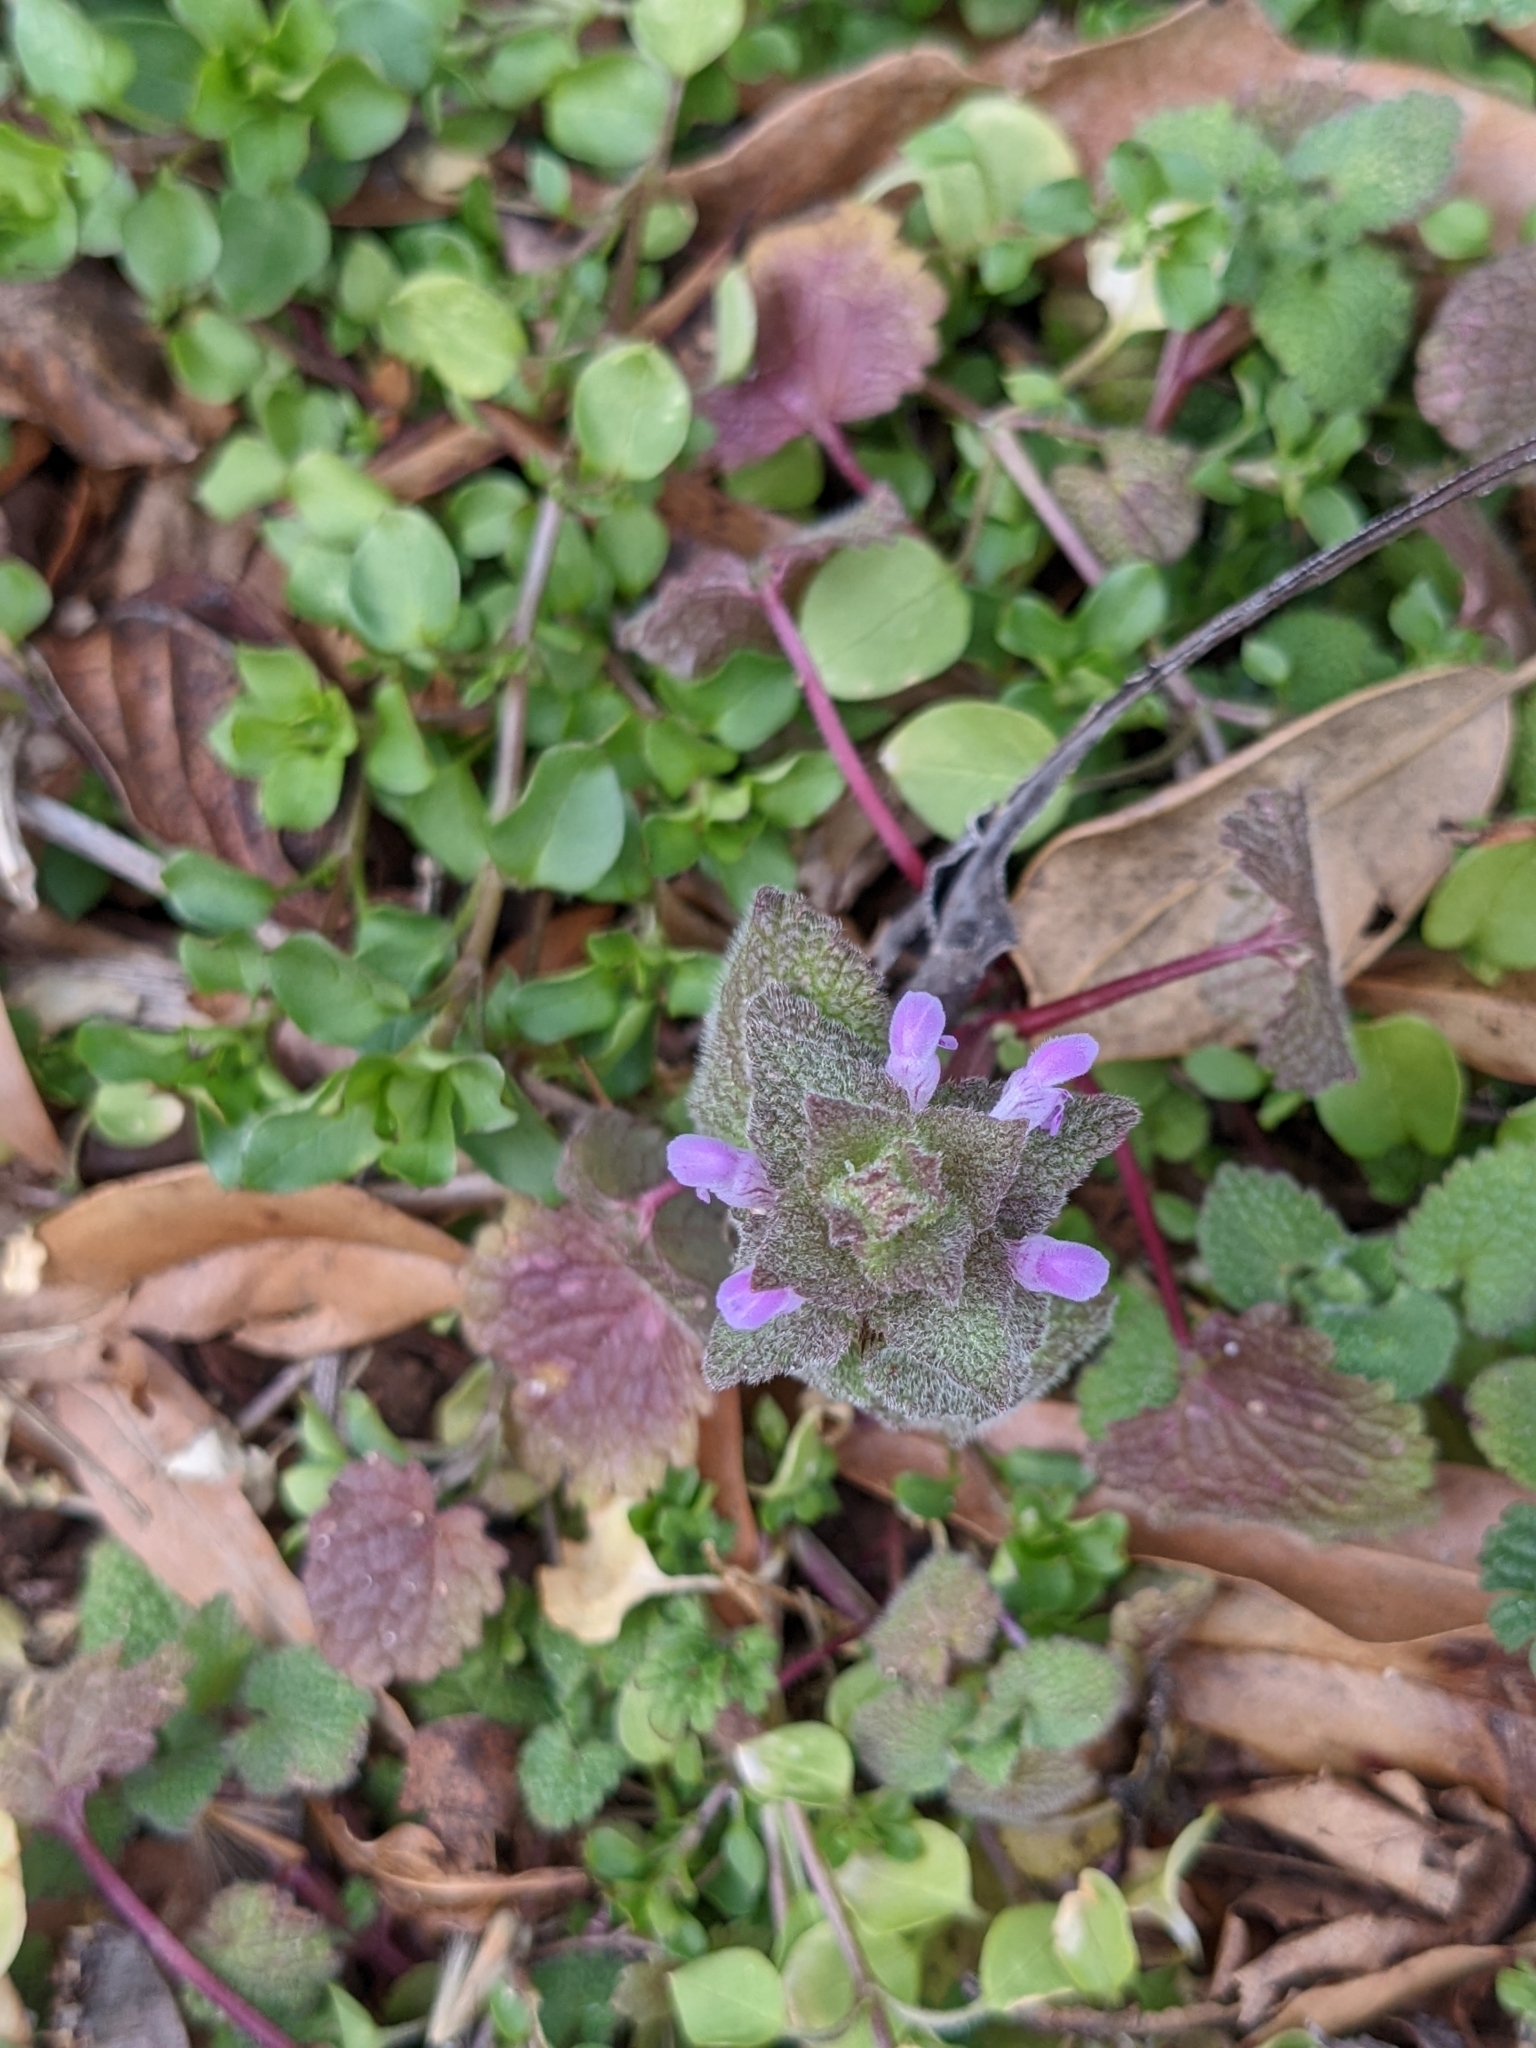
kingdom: Plantae
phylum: Tracheophyta
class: Magnoliopsida
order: Lamiales
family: Lamiaceae
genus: Lamium
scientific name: Lamium purpureum
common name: Red dead-nettle
